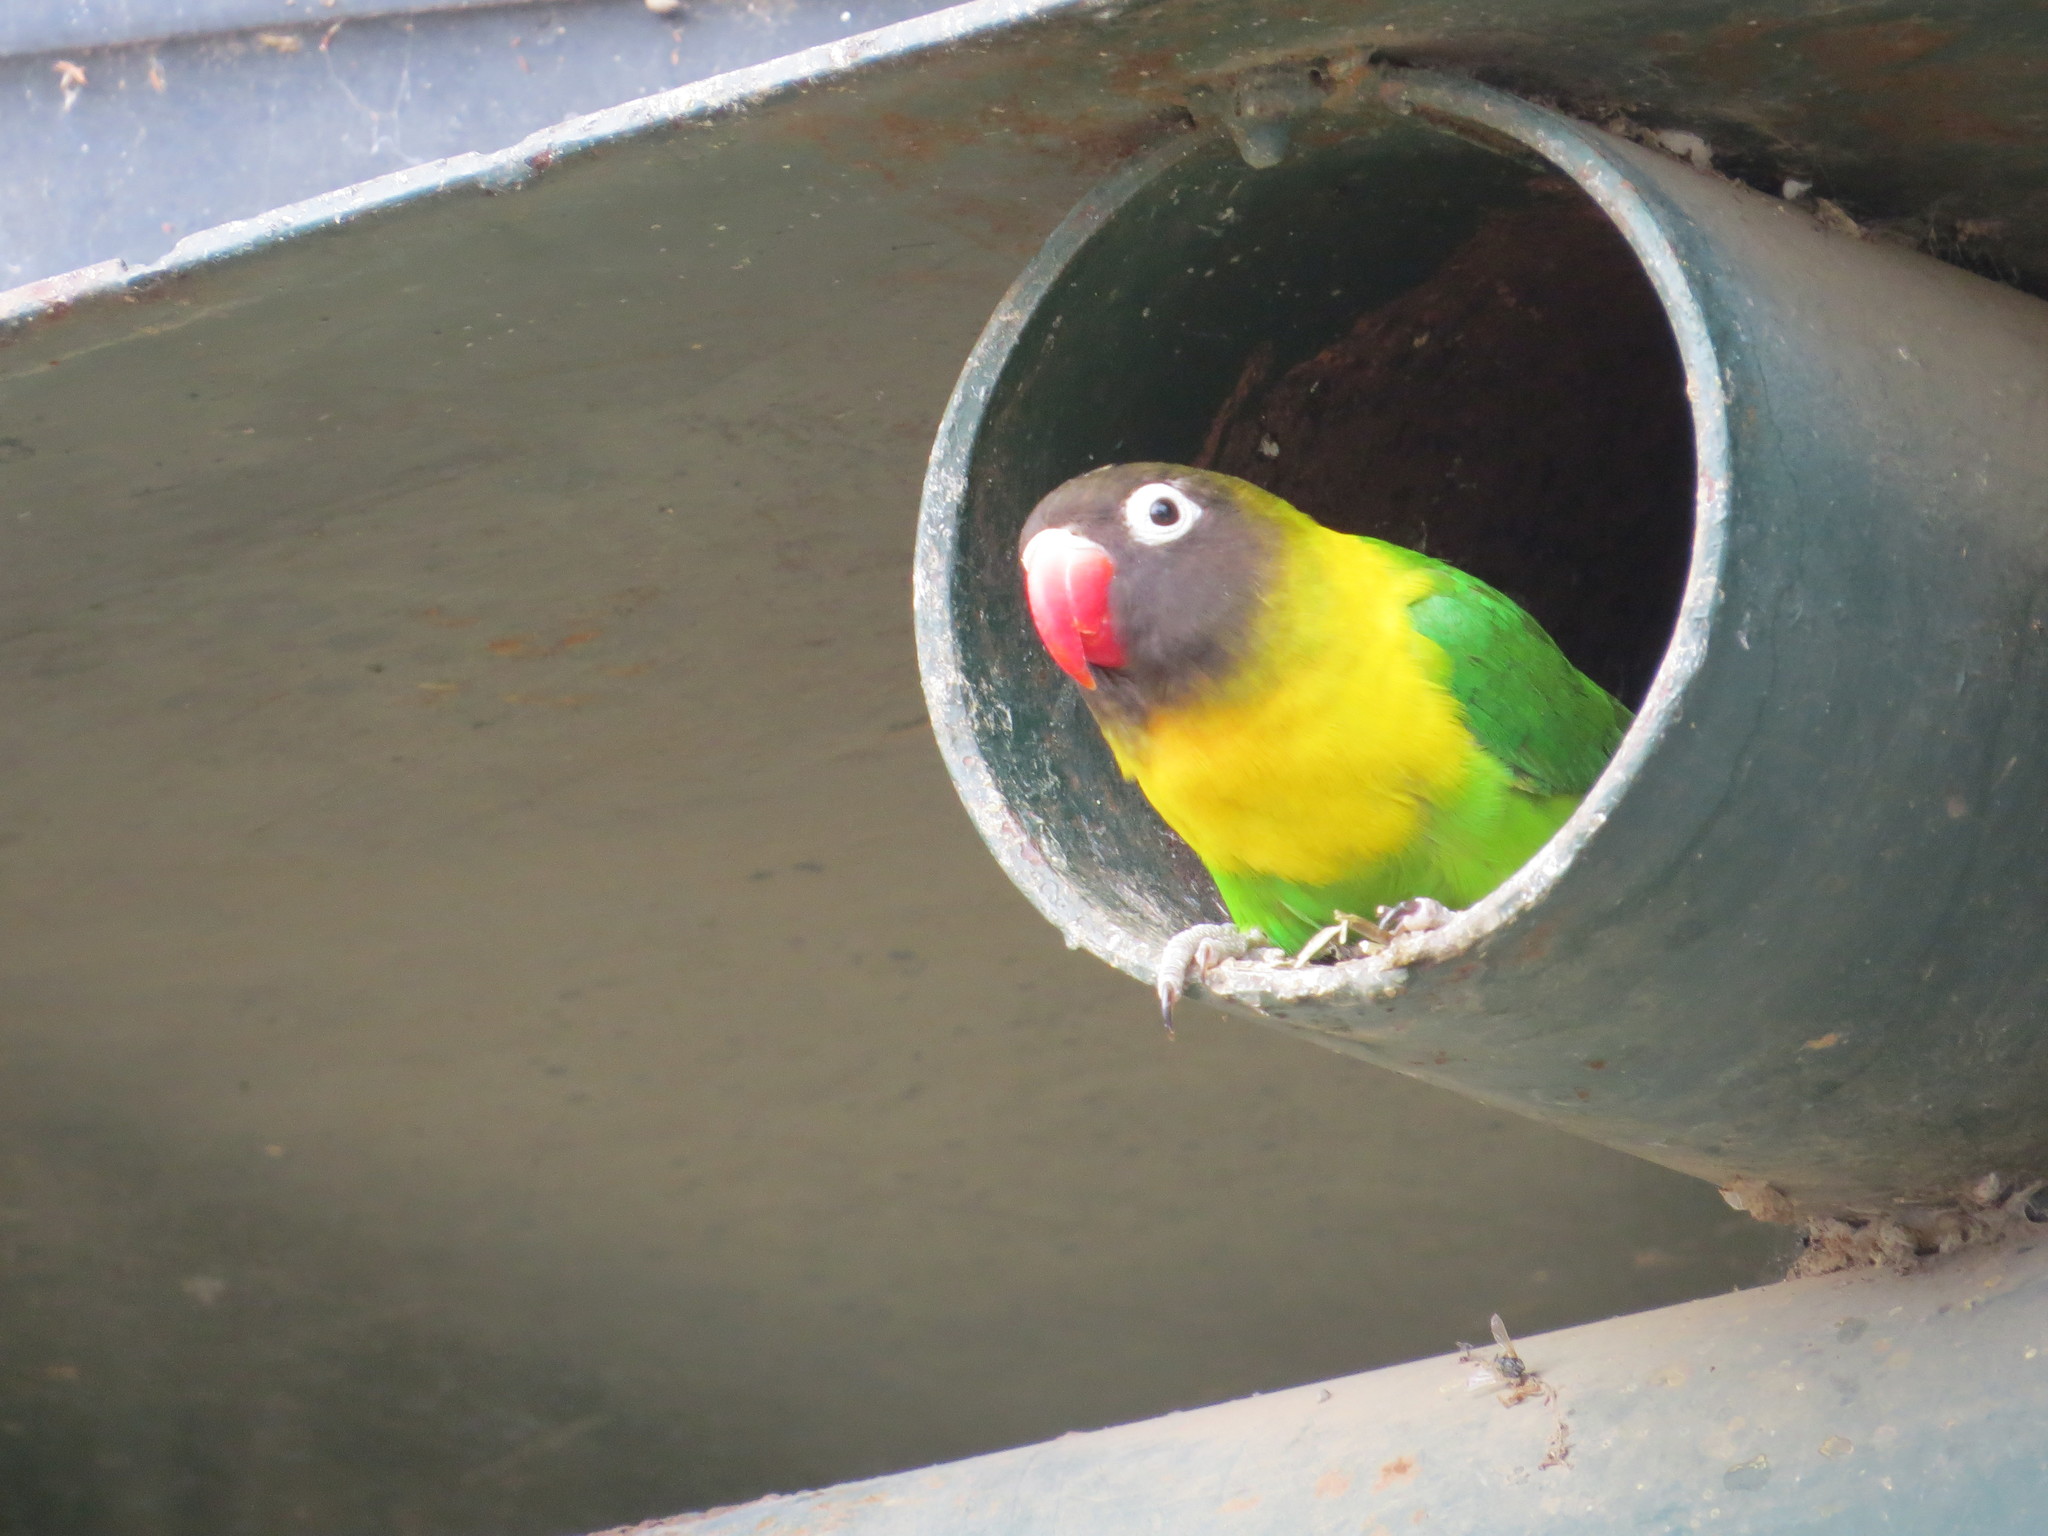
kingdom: Animalia
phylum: Chordata
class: Aves
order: Psittaciformes
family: Psittacidae
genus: Agapornis
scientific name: Agapornis personatus
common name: Yellow-collared lovebird
